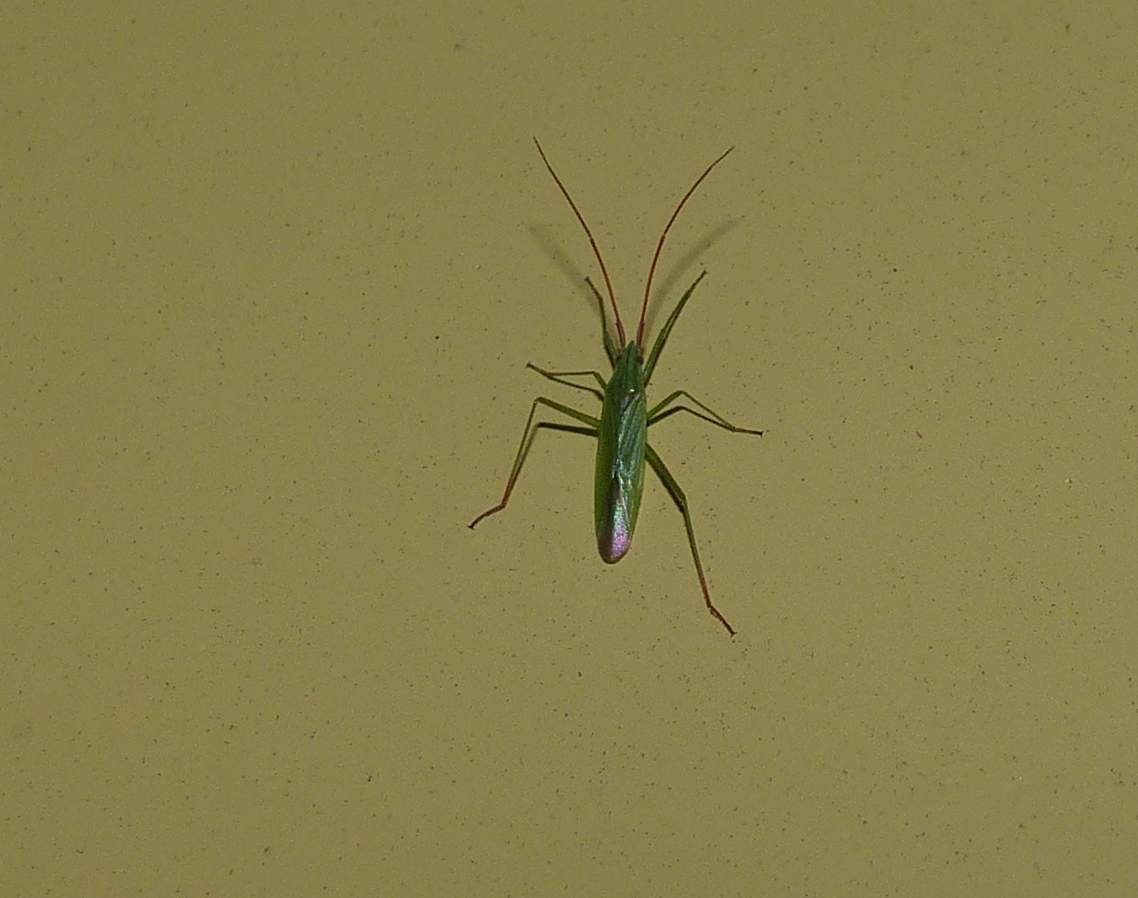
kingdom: Animalia
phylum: Arthropoda
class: Insecta
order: Hemiptera
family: Miridae
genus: Trigonotylus
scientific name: Trigonotylus caelestialium
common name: Rice leaf bug
